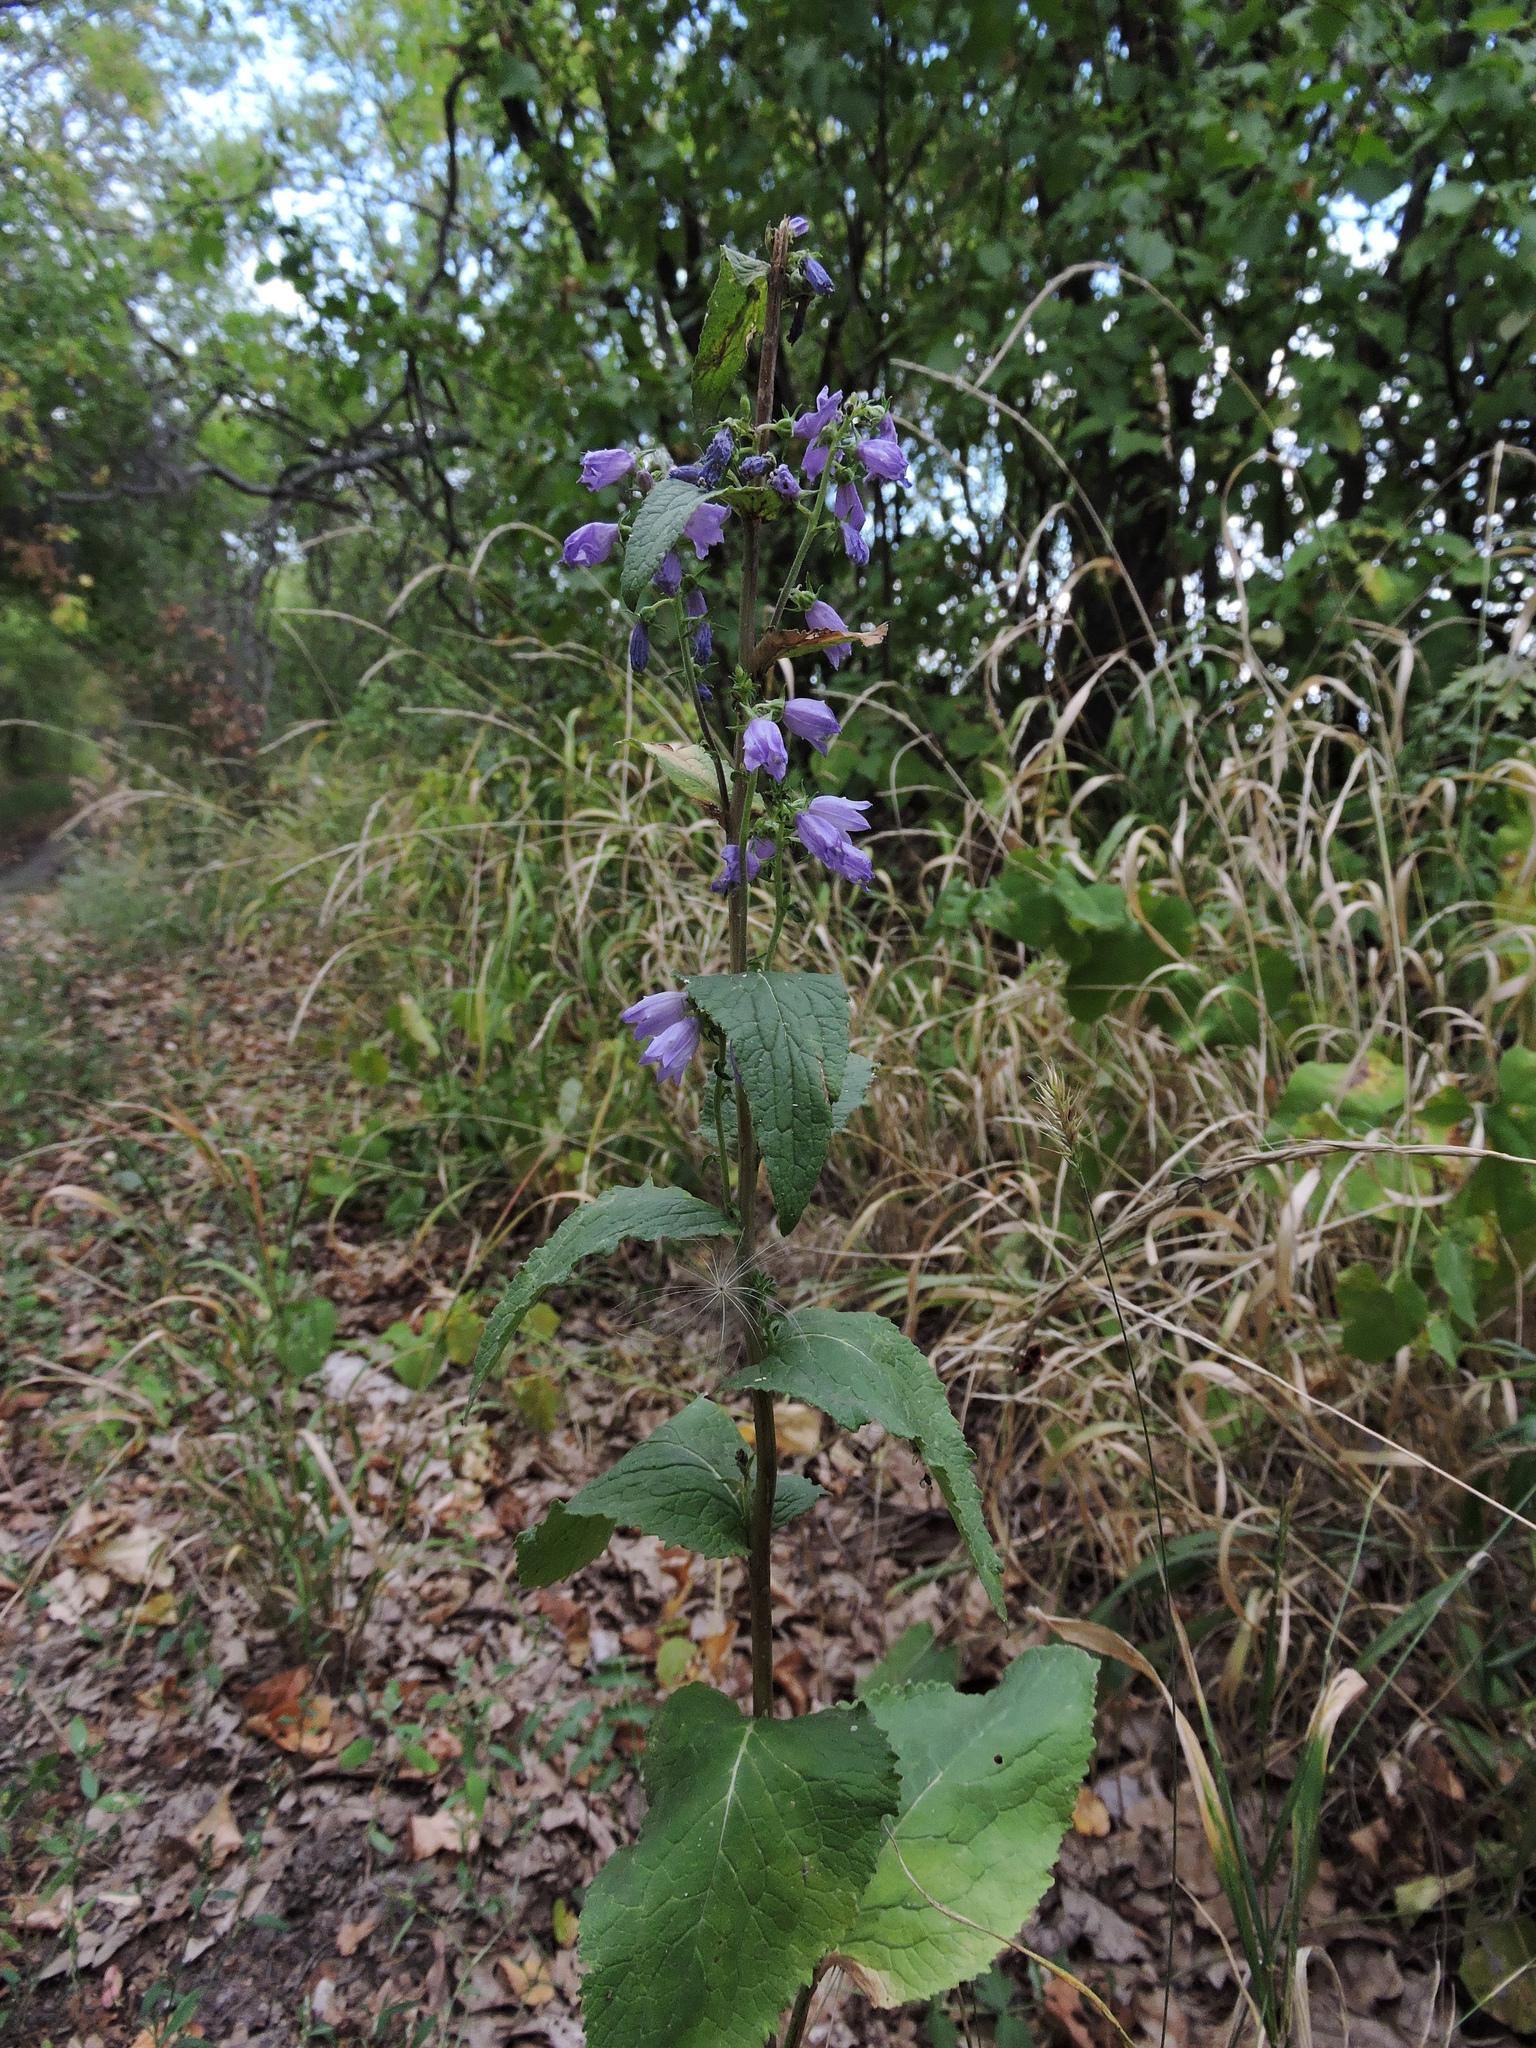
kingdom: Plantae
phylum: Tracheophyta
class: Magnoliopsida
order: Asterales
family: Campanulaceae
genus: Campanula
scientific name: Campanula bononiensis
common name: Pale bellflower
